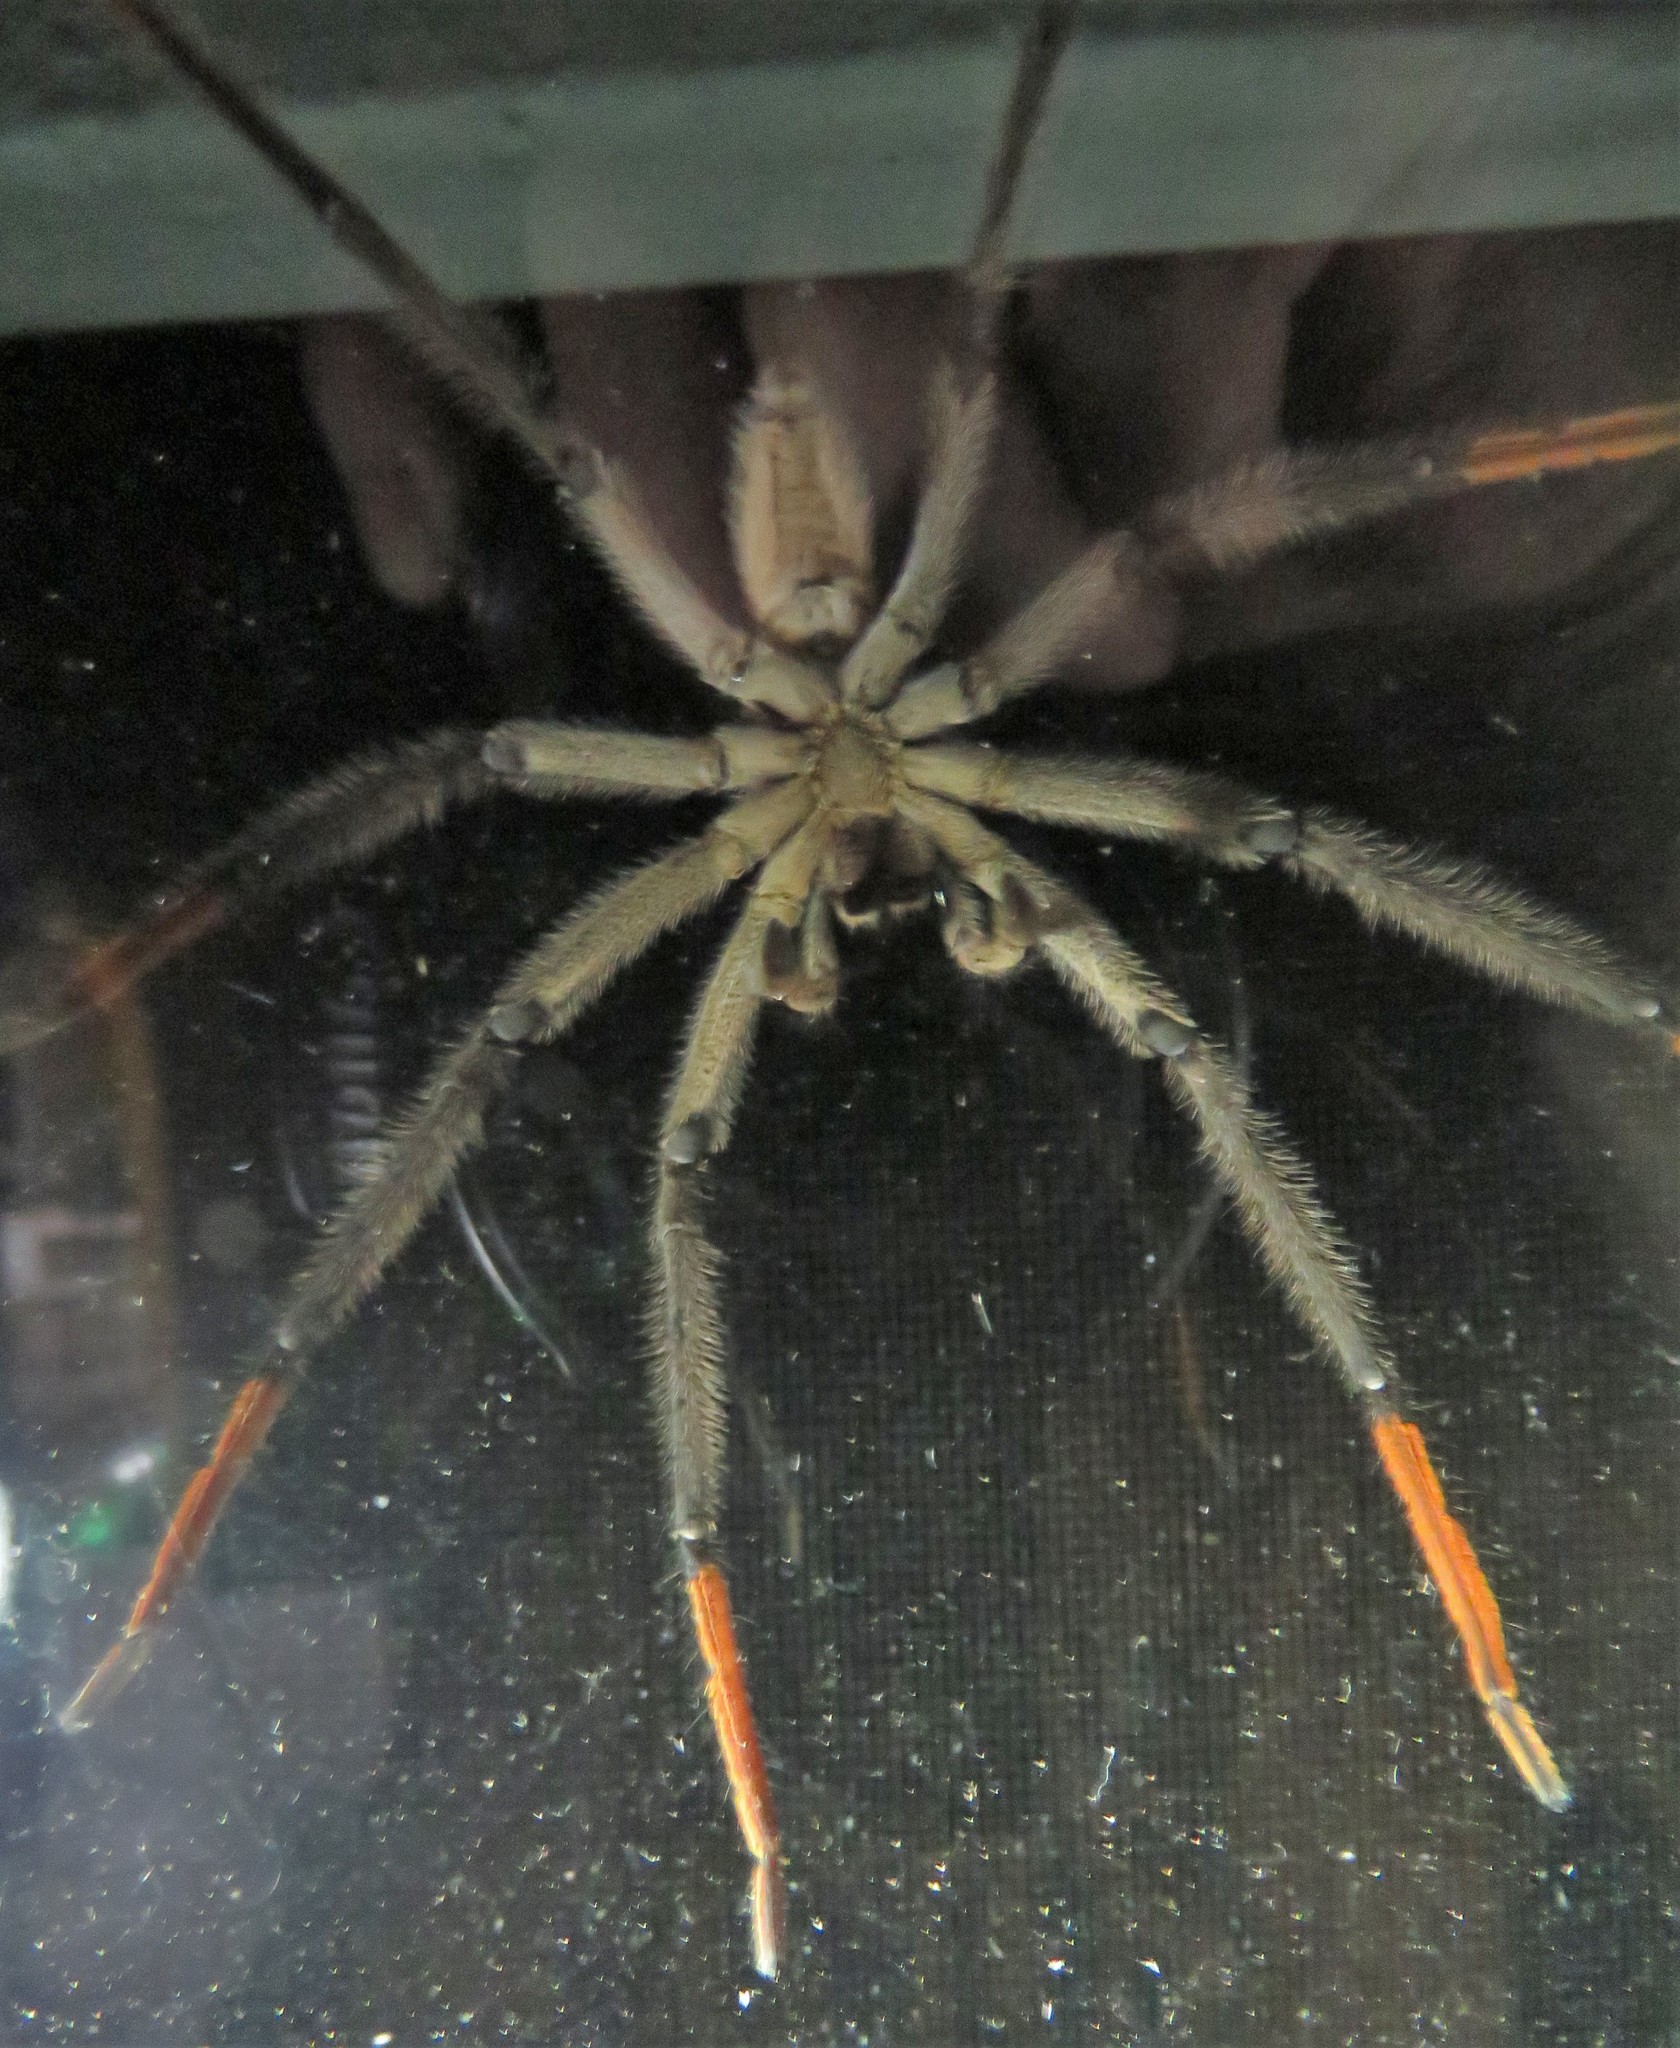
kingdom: Animalia
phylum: Arthropoda
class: Arachnida
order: Araneae
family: Trechaleidae
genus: Cupiennius
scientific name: Cupiennius getazi
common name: Wandering spiders
